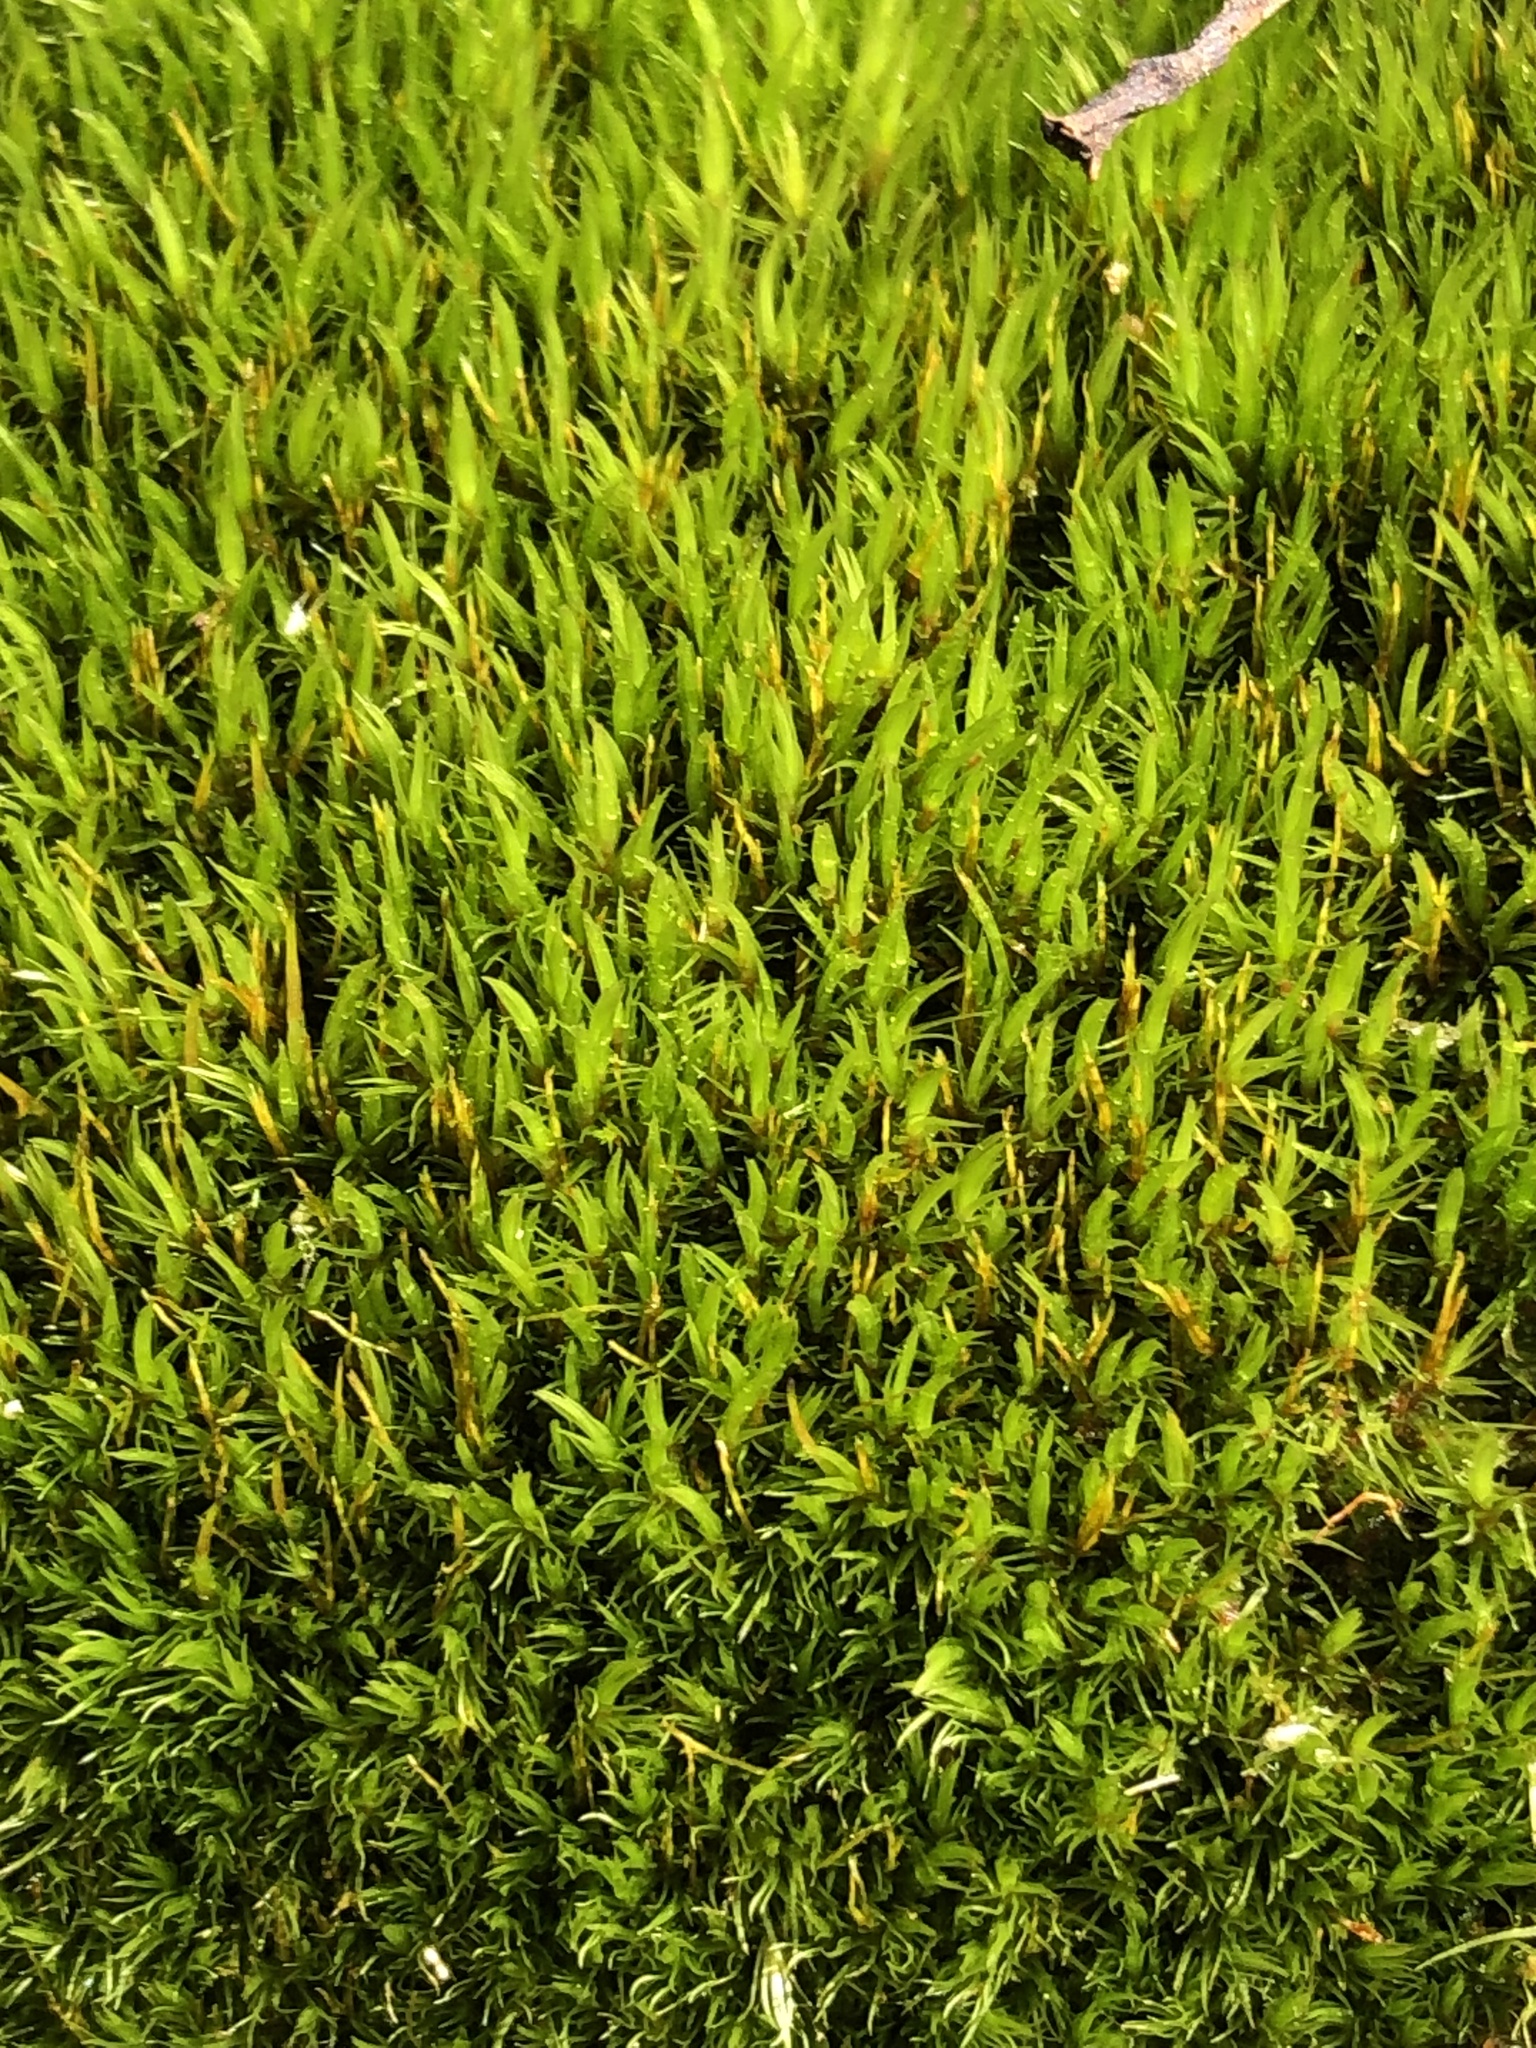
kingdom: Plantae
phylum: Bryophyta
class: Bryopsida
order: Dicranales
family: Dicranaceae
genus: Orthodicranum
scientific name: Orthodicranum flagellare
